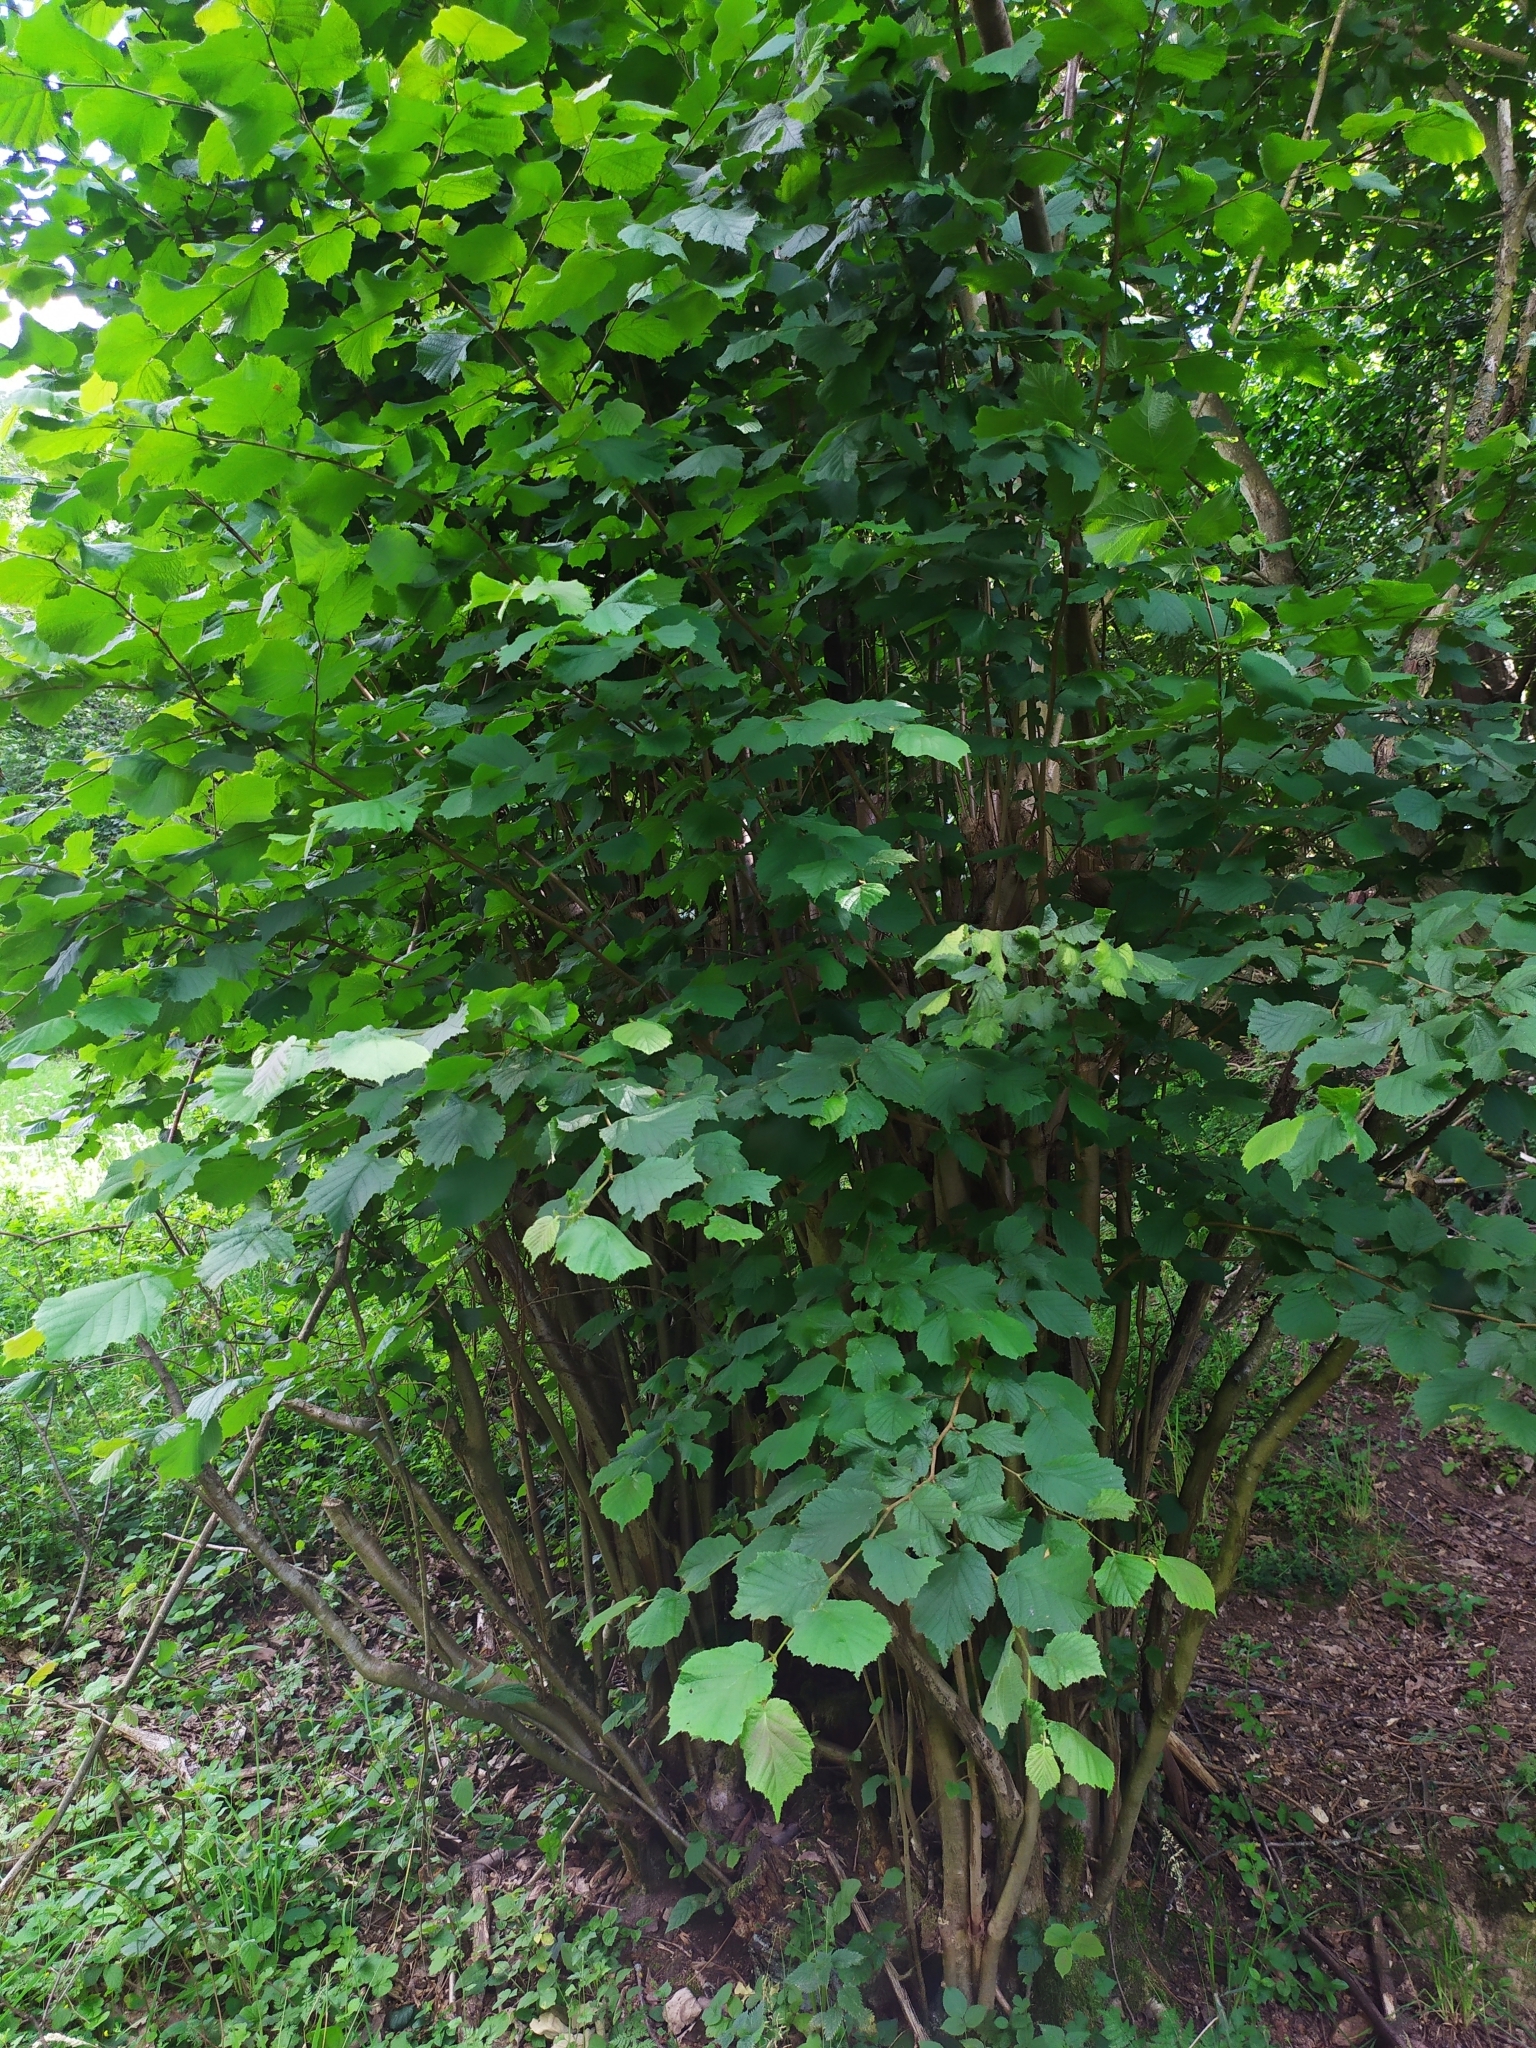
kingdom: Plantae
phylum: Tracheophyta
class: Magnoliopsida
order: Fagales
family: Betulaceae
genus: Corylus
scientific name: Corylus avellana
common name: European hazel
